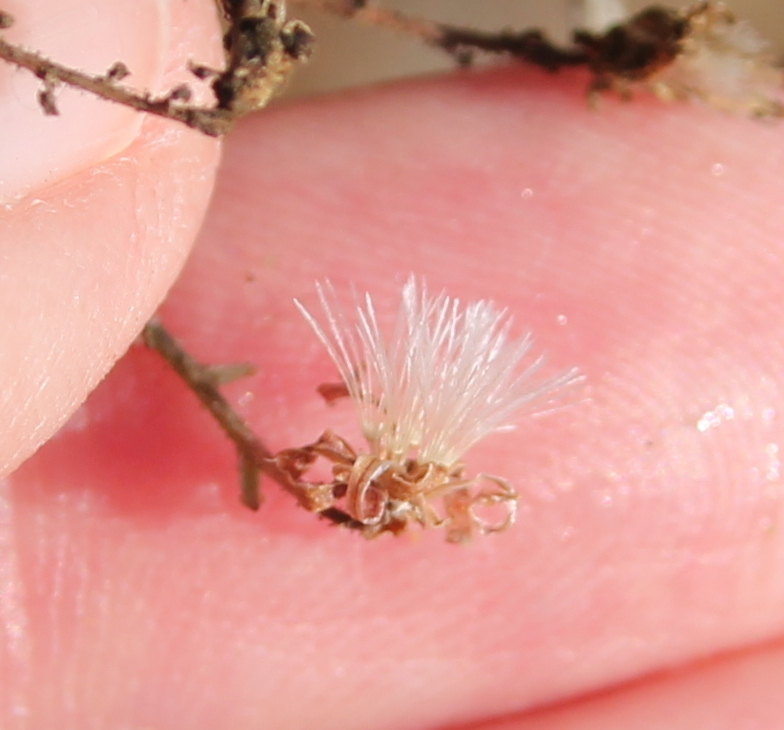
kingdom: Plantae
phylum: Tracheophyta
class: Magnoliopsida
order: Asterales
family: Asteraceae
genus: Stephanomeria
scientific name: Stephanomeria exigua
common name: Small wirelettuce
